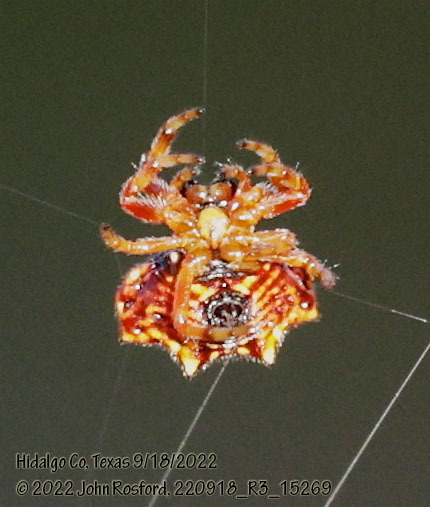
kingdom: Animalia
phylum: Arthropoda
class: Arachnida
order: Araneae
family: Araneidae
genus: Gasteracantha
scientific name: Gasteracantha cancriformis
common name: Orb weavers
